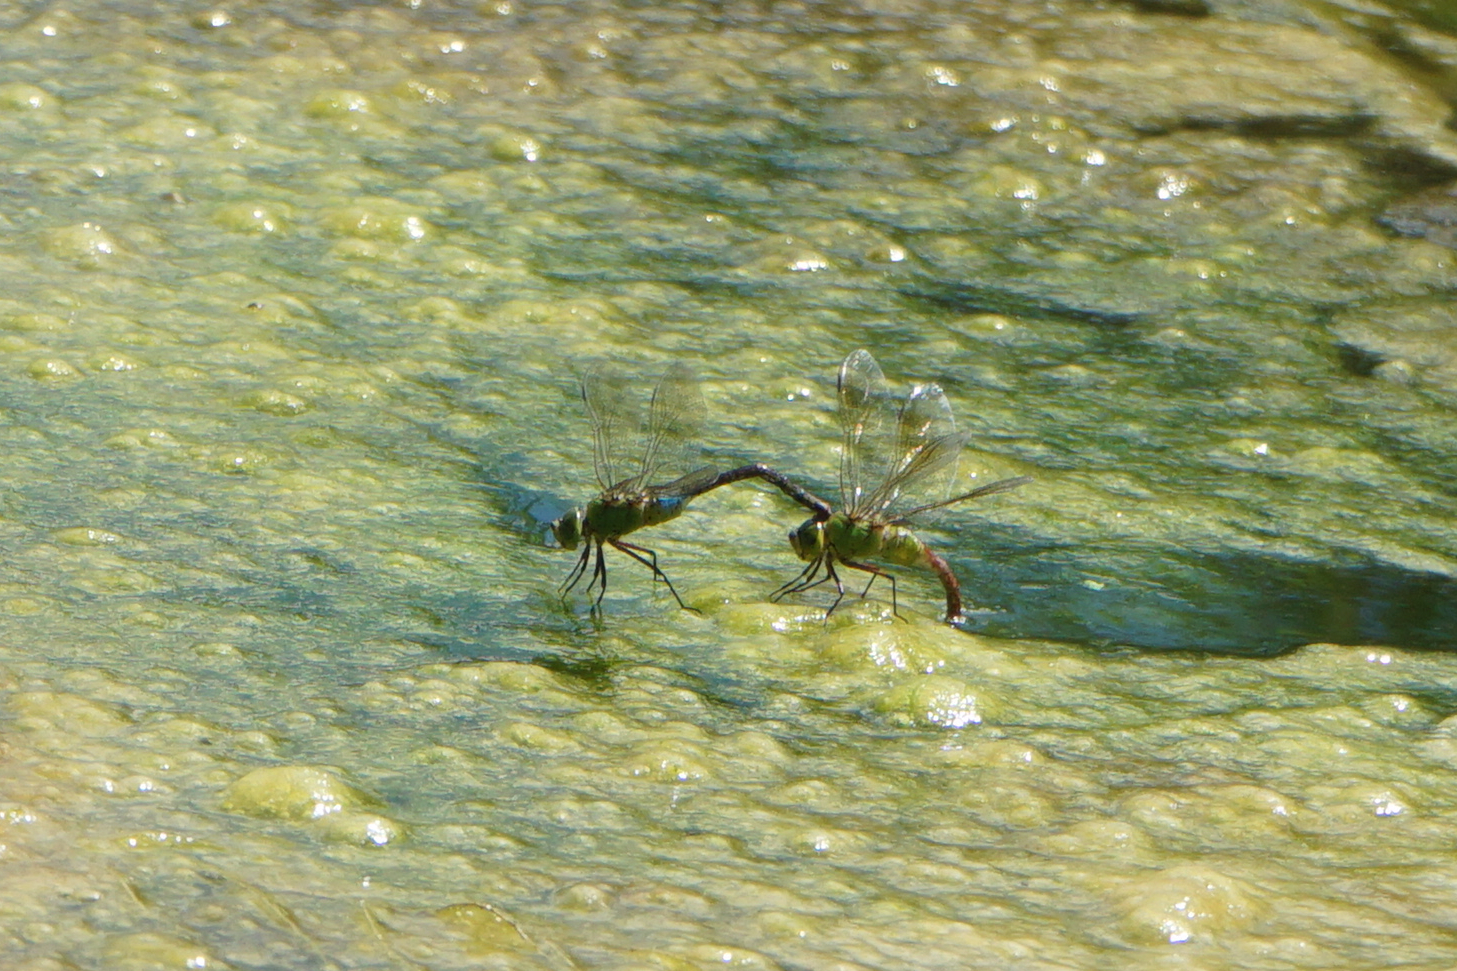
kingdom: Animalia
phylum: Arthropoda
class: Insecta
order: Odonata
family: Aeshnidae
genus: Anax
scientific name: Anax julius
